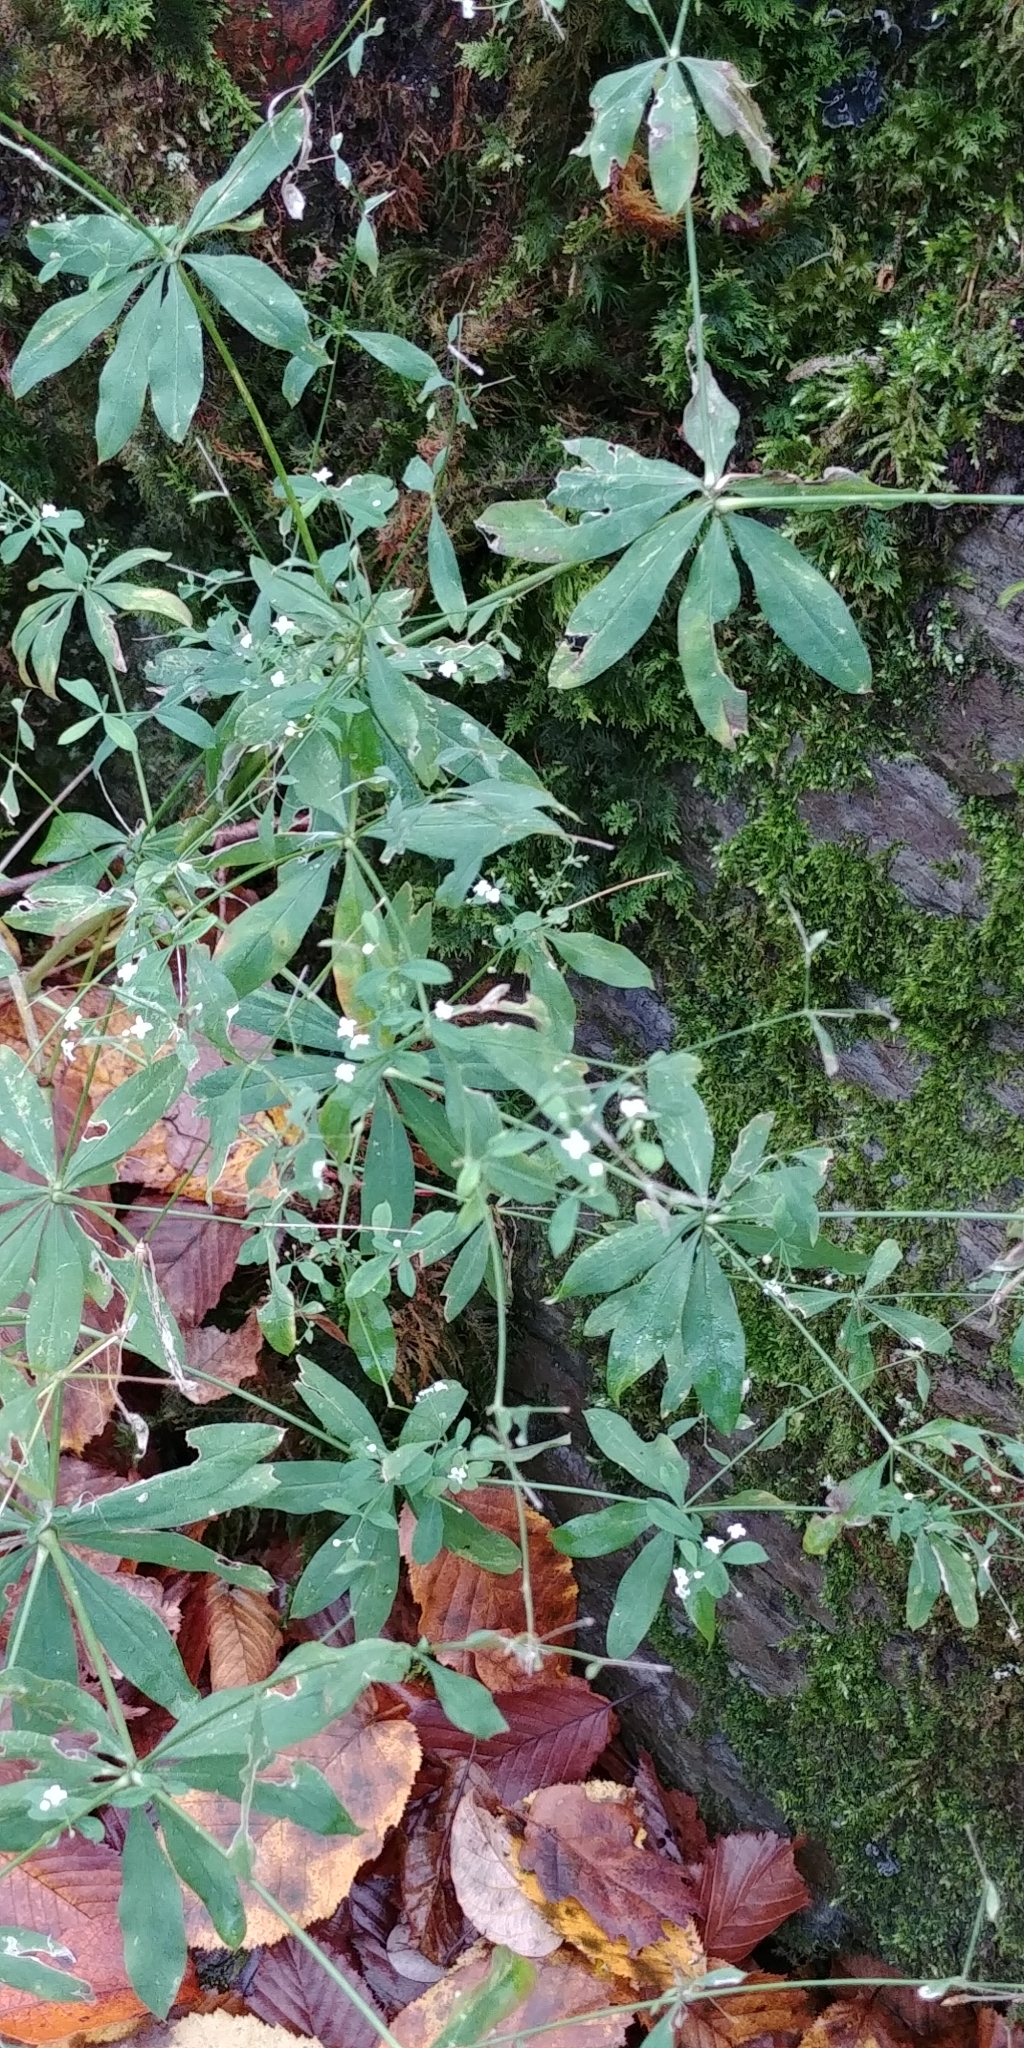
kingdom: Plantae
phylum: Tracheophyta
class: Magnoliopsida
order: Gentianales
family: Rubiaceae
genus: Galium
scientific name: Galium sylvaticum
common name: Wood bedstraw
